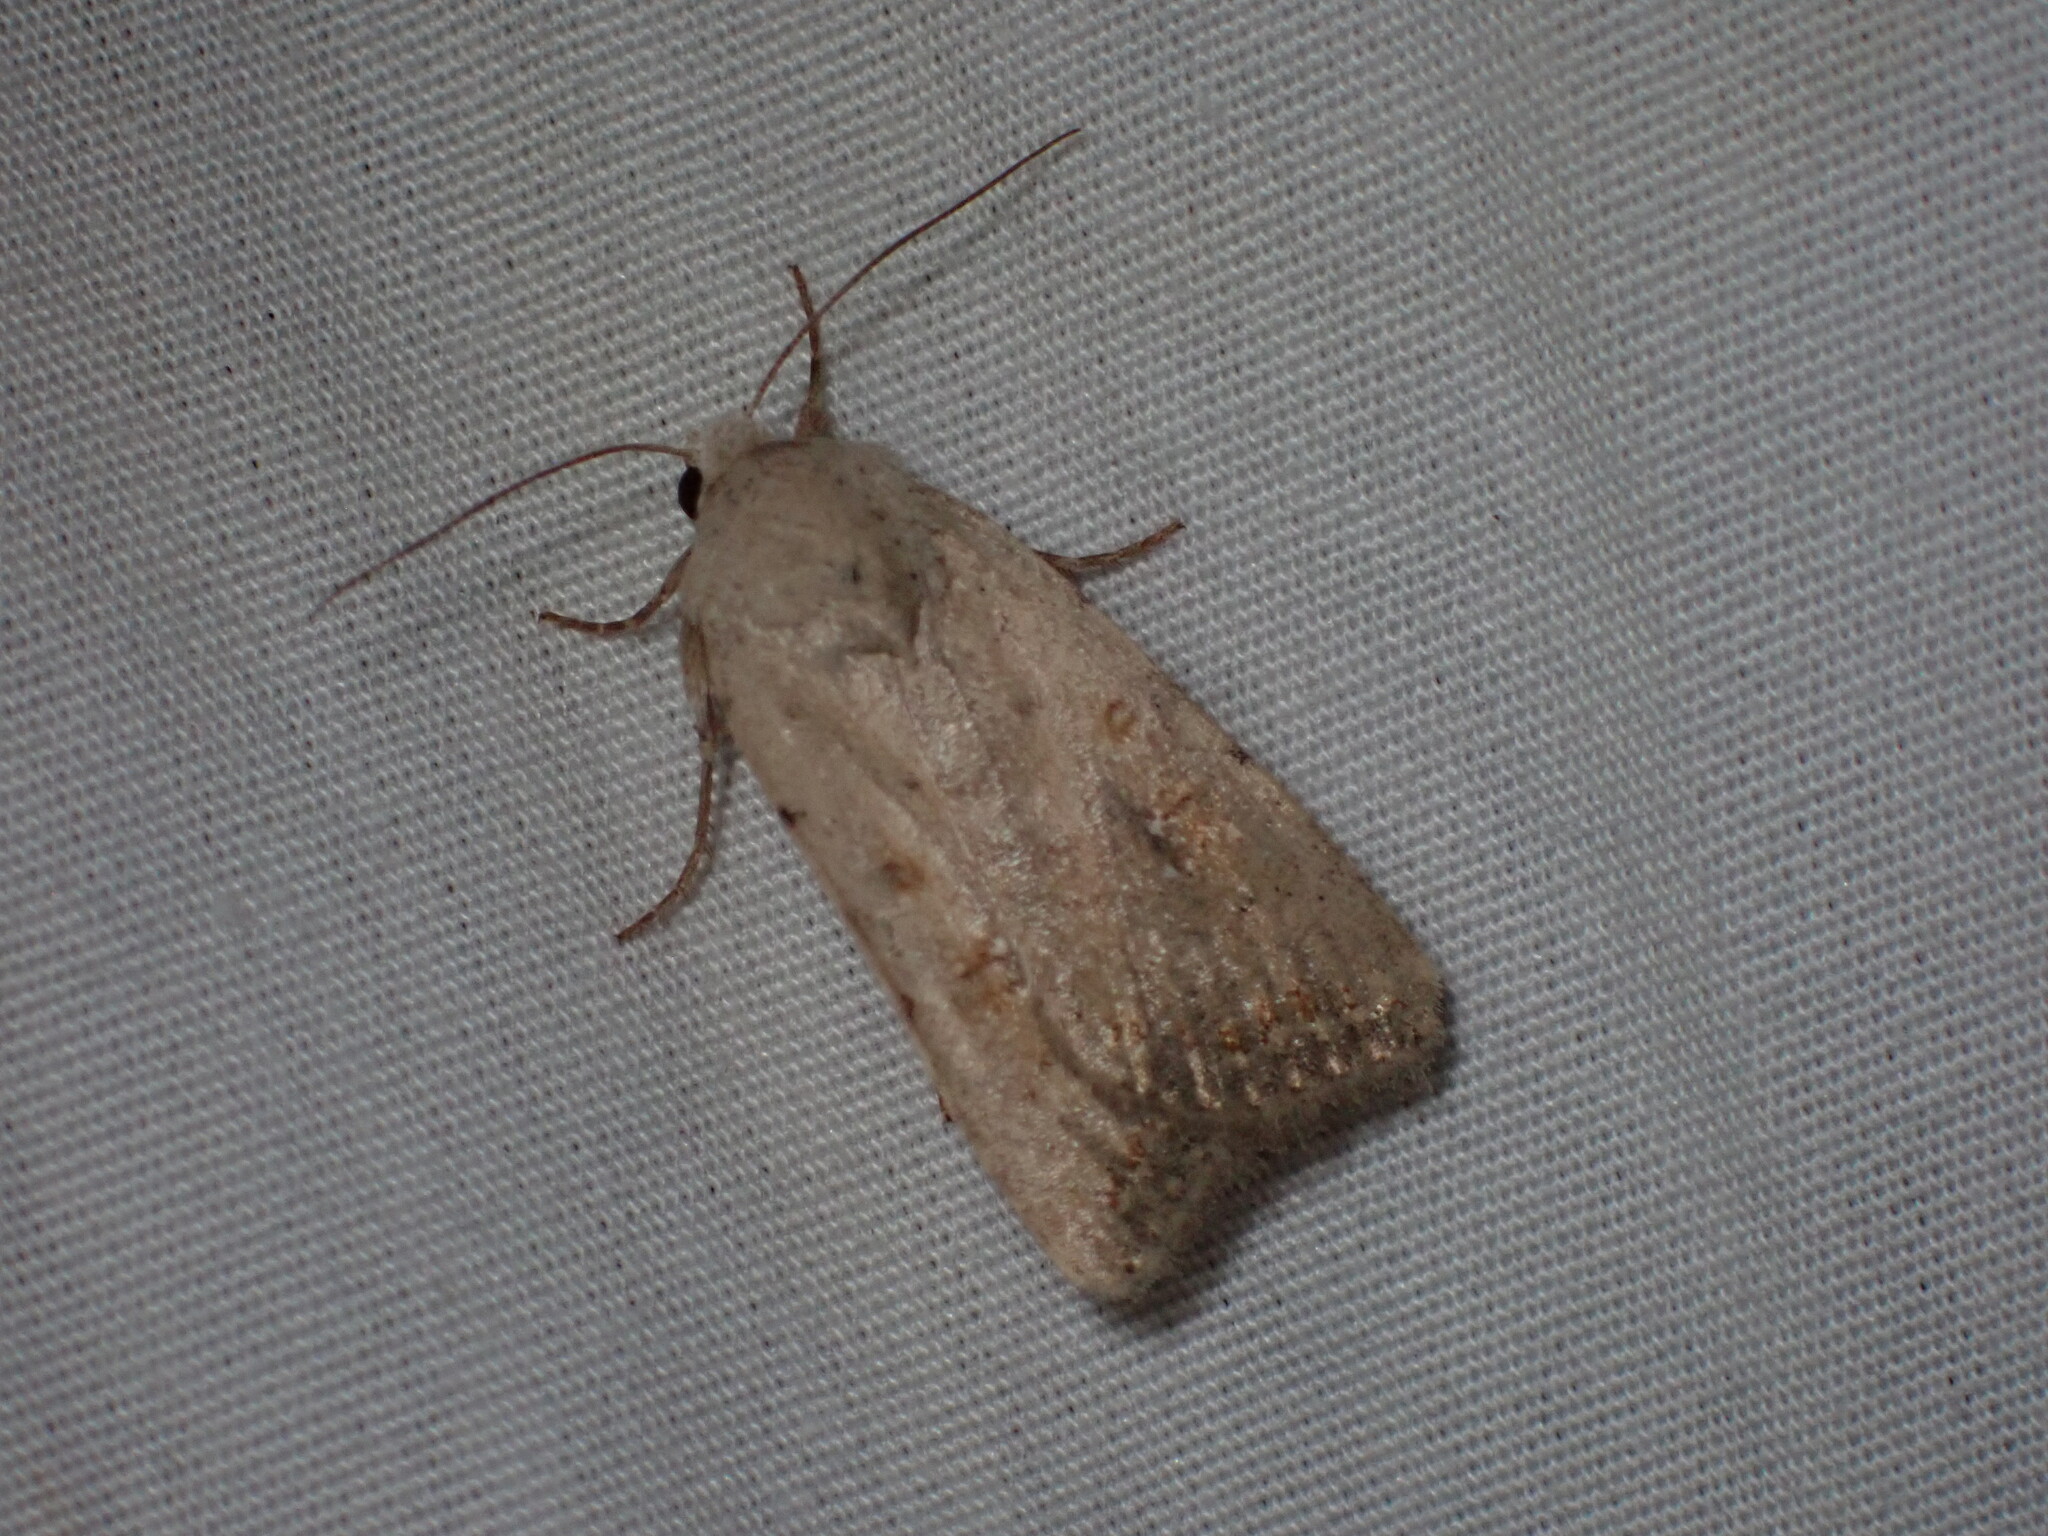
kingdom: Animalia
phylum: Arthropoda
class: Insecta
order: Lepidoptera
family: Noctuidae
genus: Caradrina
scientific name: Caradrina montana
